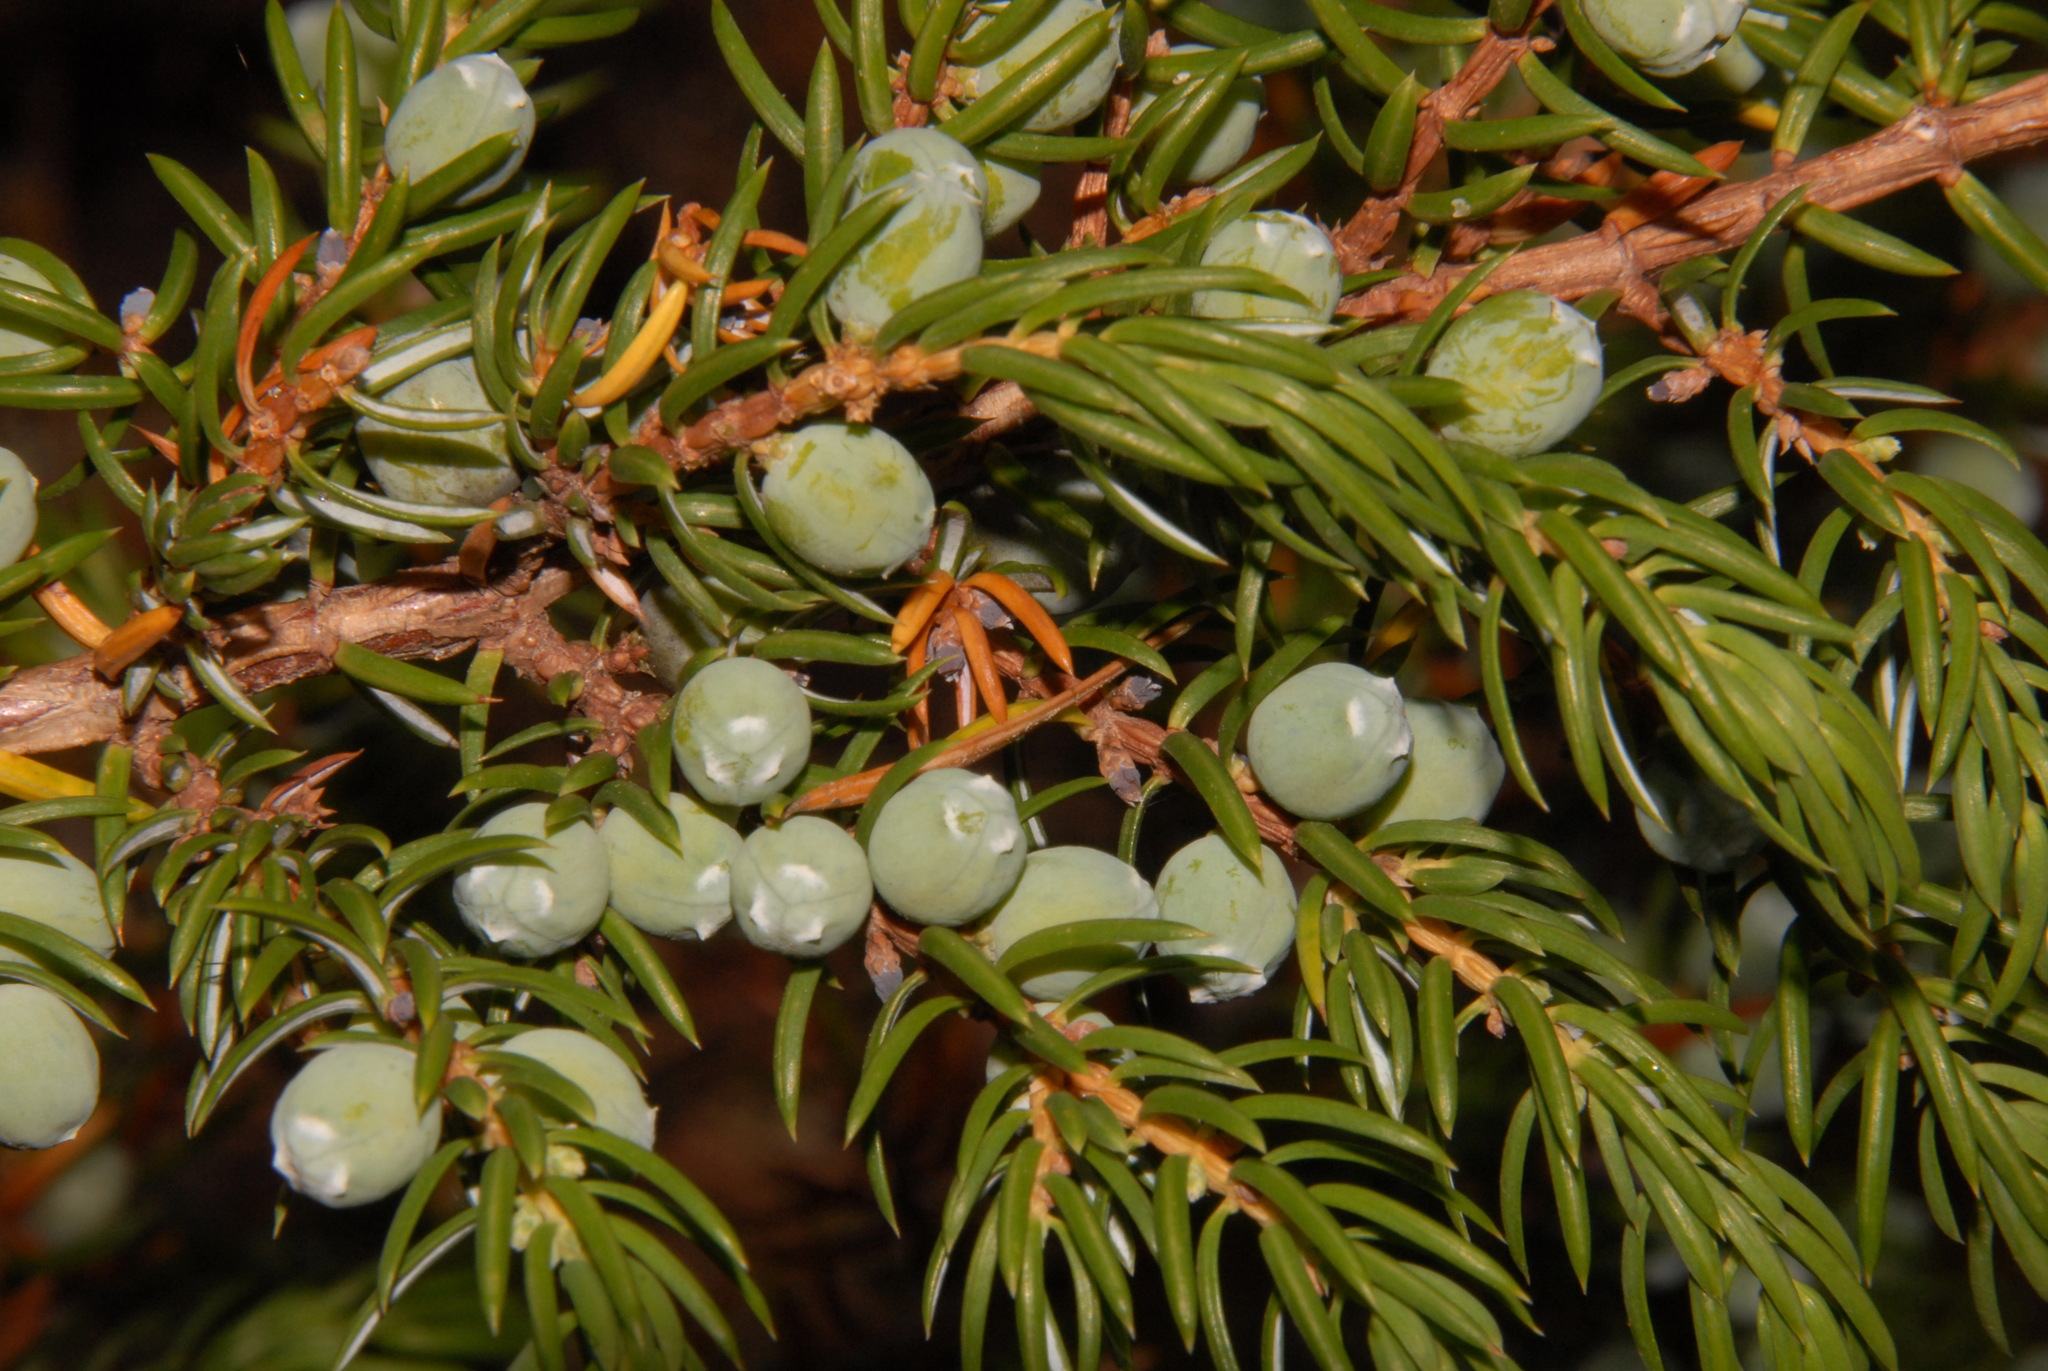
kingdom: Plantae
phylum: Tracheophyta
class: Pinopsida
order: Pinales
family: Cupressaceae
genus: Juniperus
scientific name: Juniperus communis
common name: Common juniper
